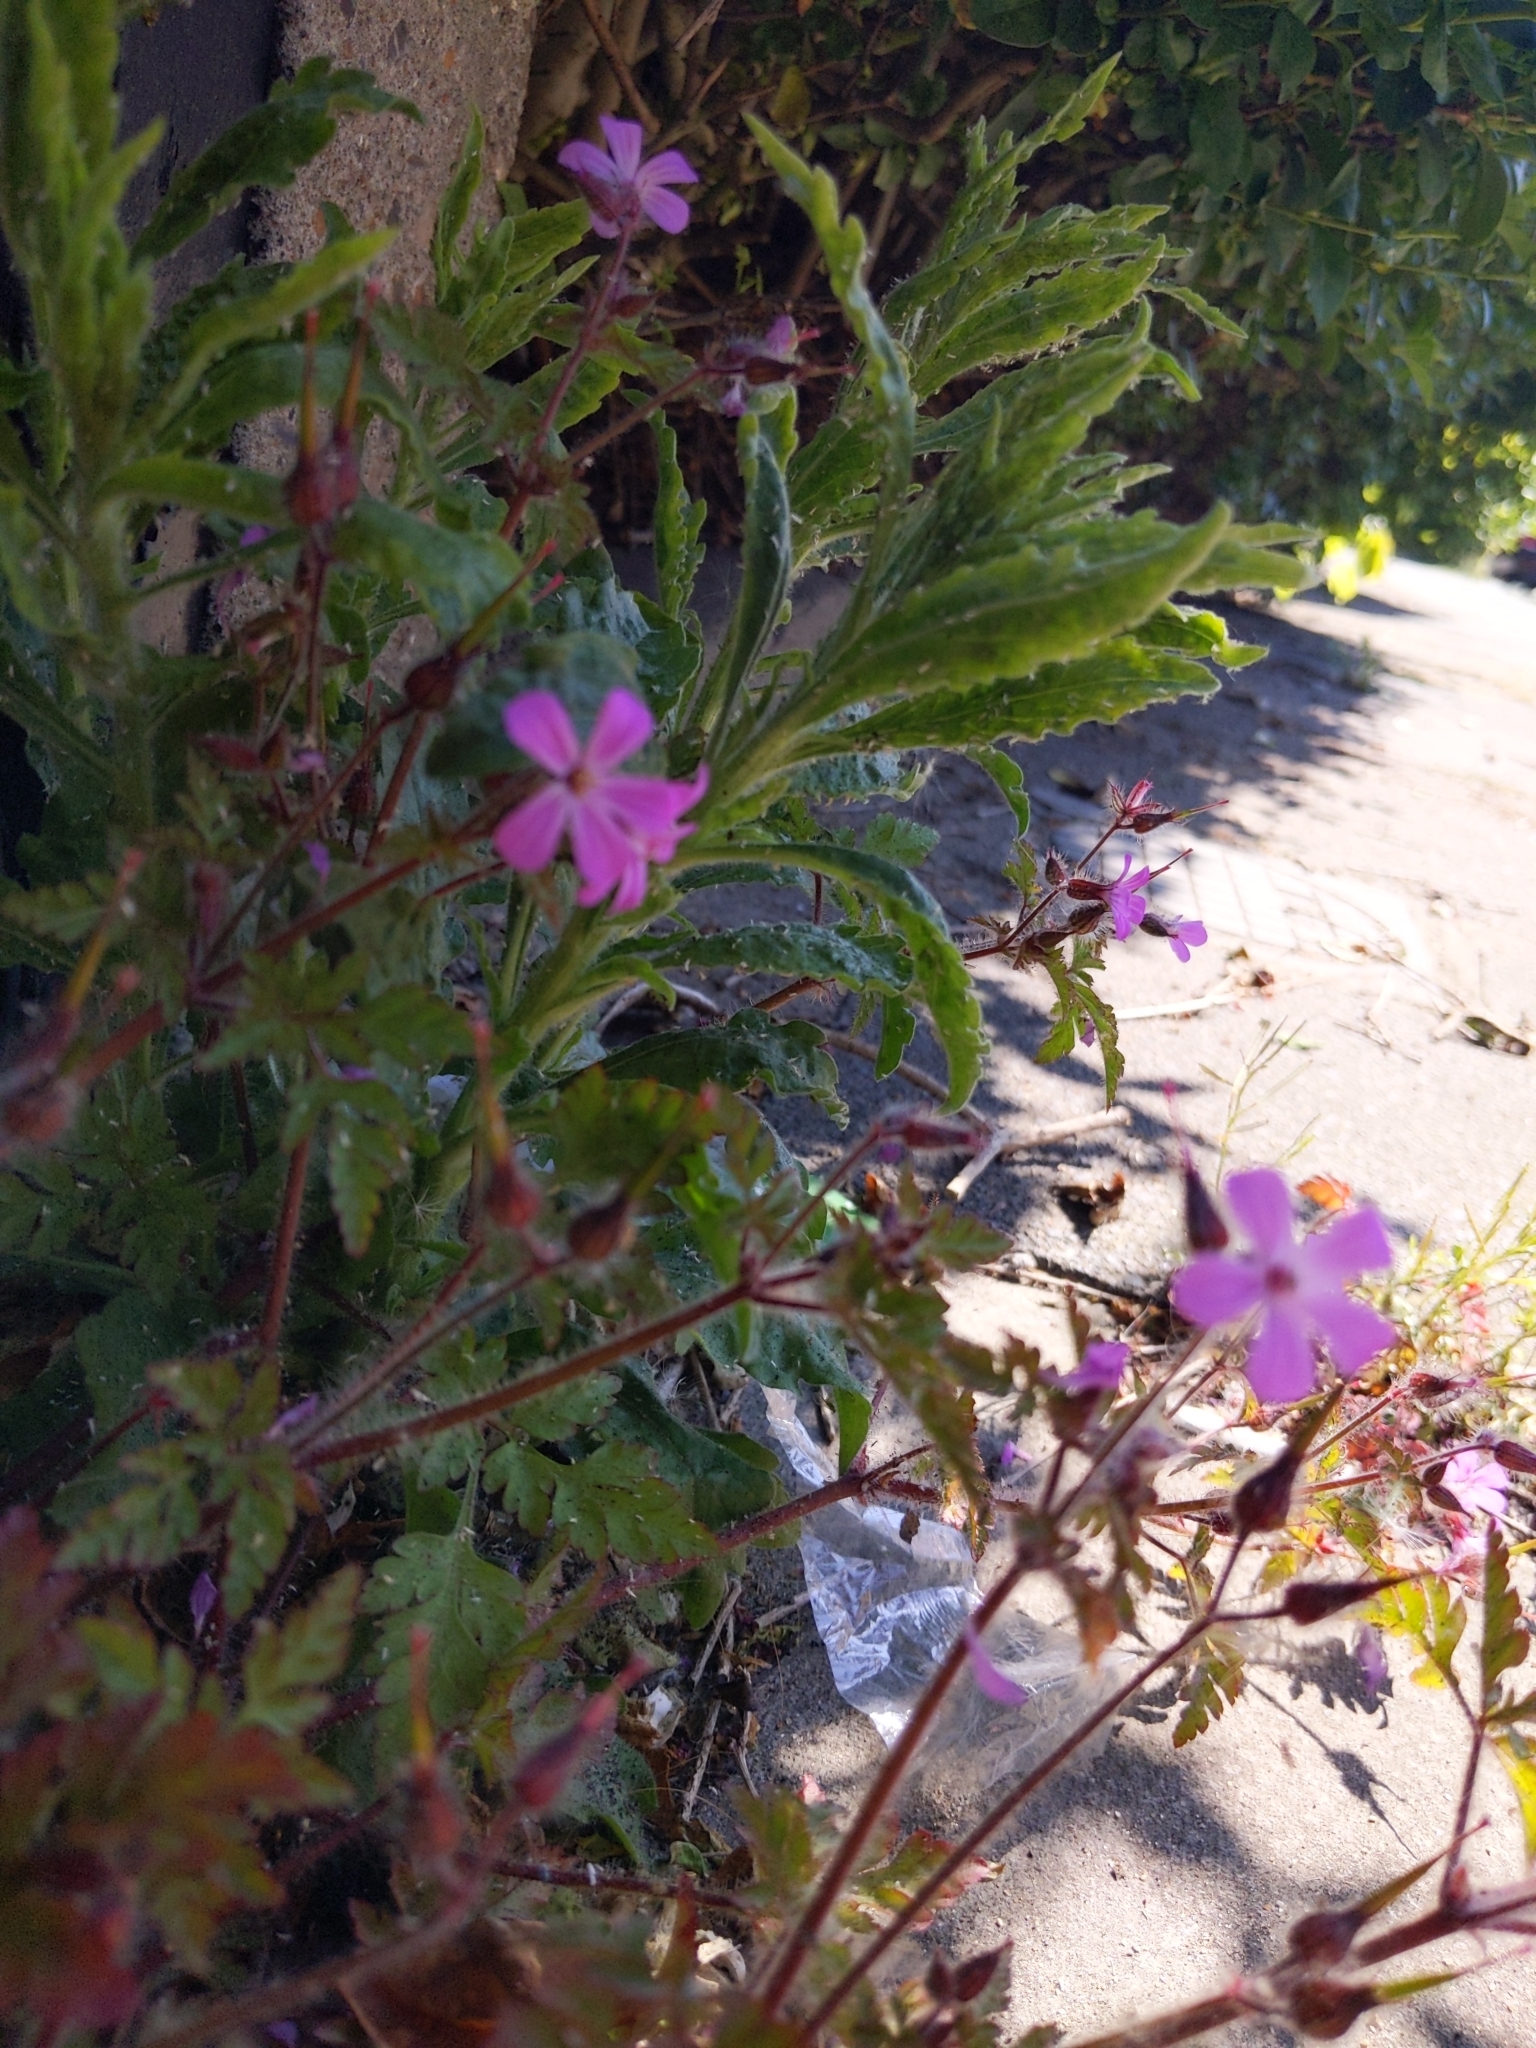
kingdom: Plantae
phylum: Tracheophyta
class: Magnoliopsida
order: Geraniales
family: Geraniaceae
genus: Geranium
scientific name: Geranium robertianum
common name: Herb-robert
